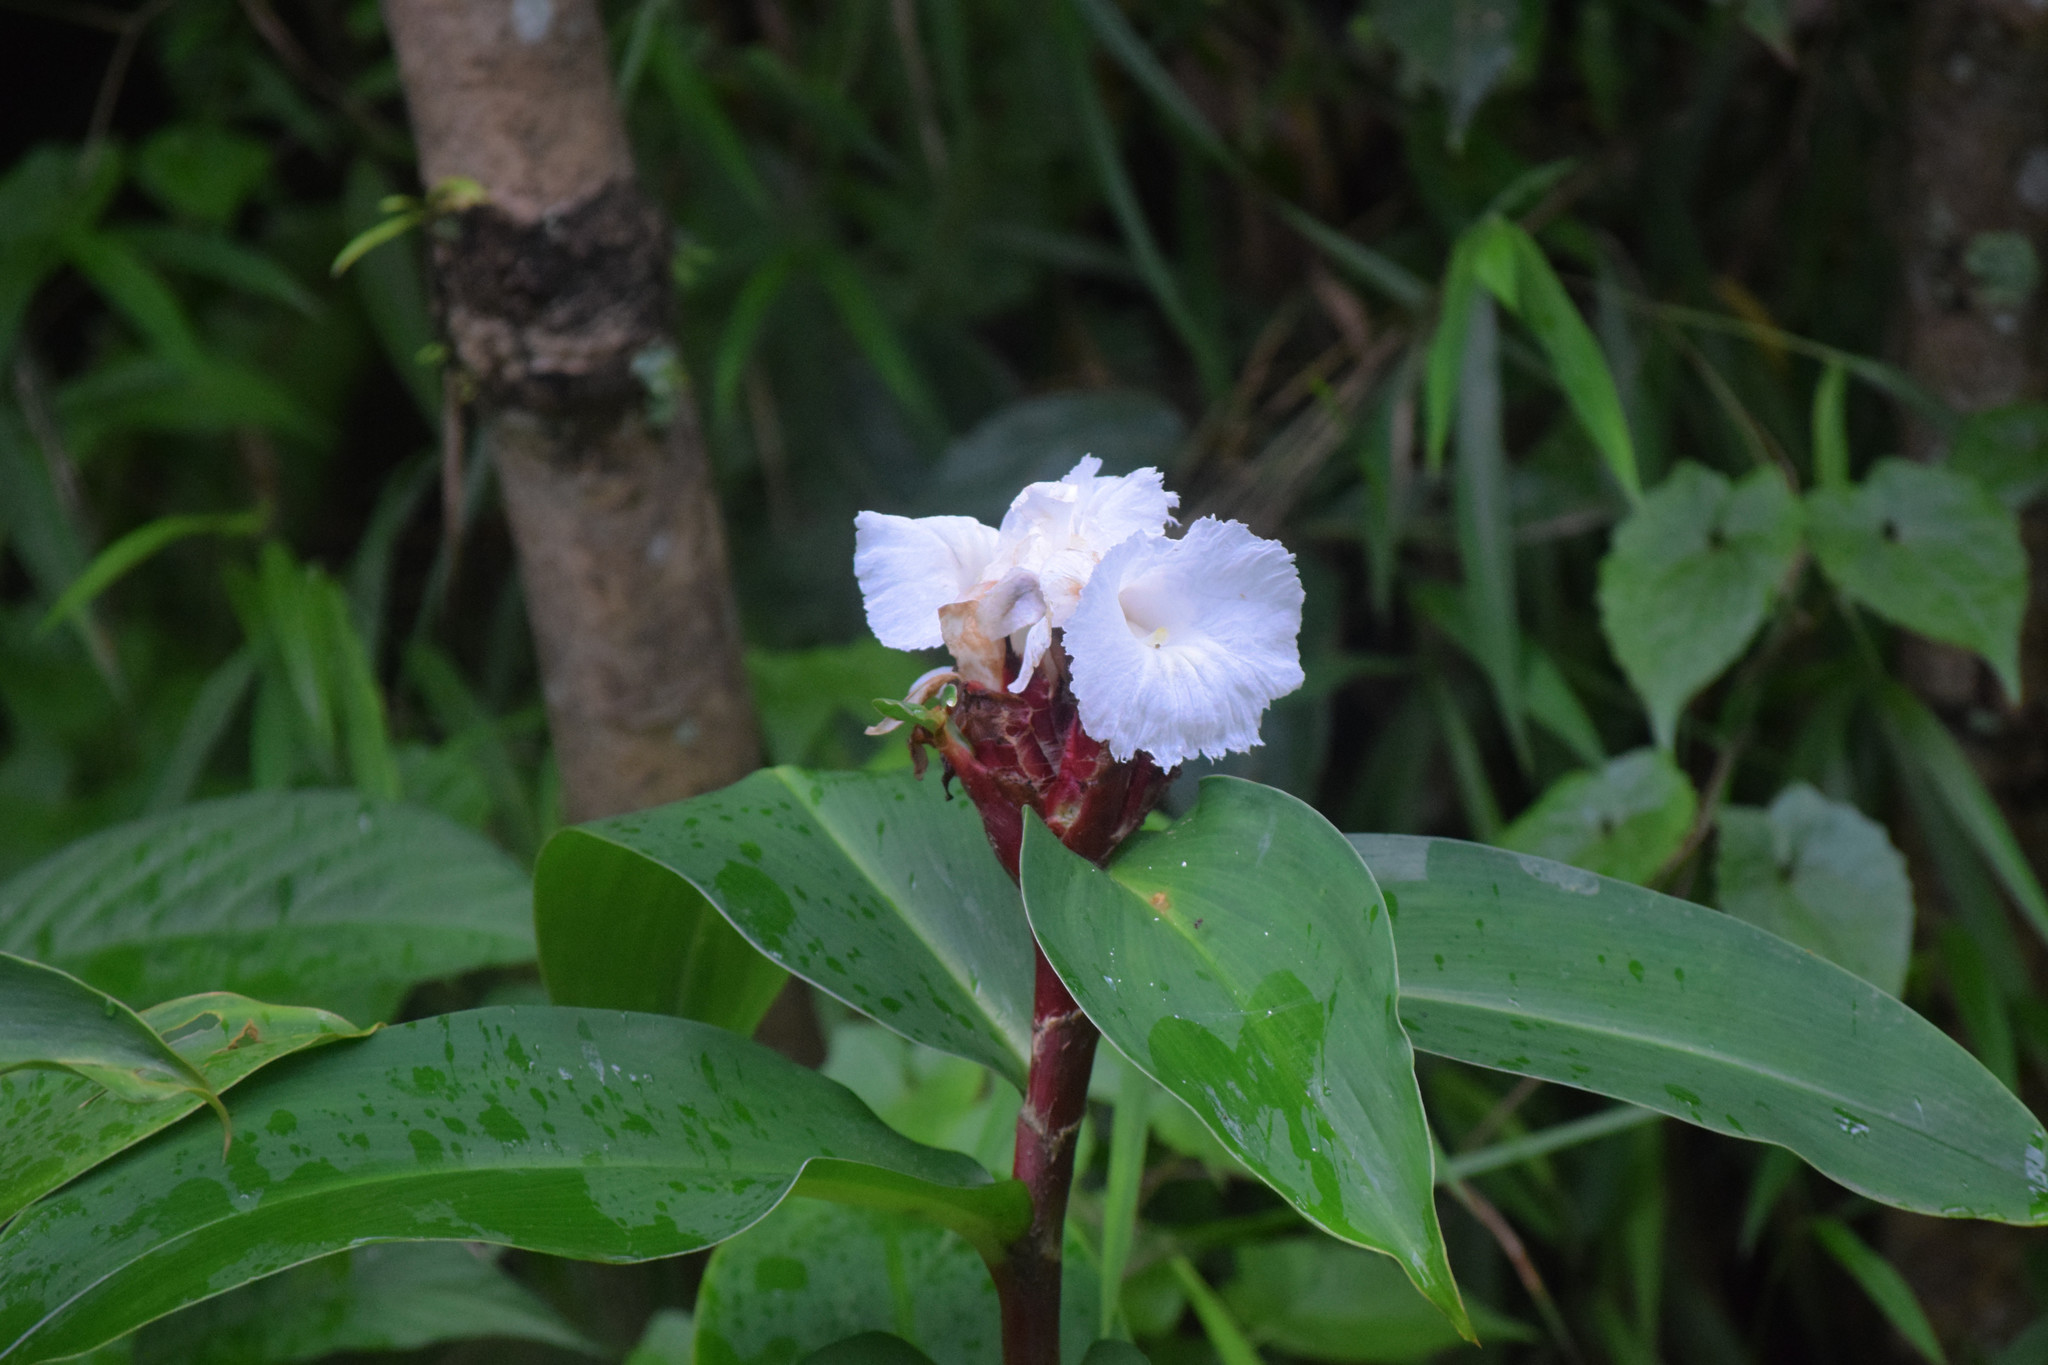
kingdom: Plantae
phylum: Tracheophyta
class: Liliopsida
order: Zingiberales
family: Costaceae
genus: Hellenia
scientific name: Hellenia speciosa
